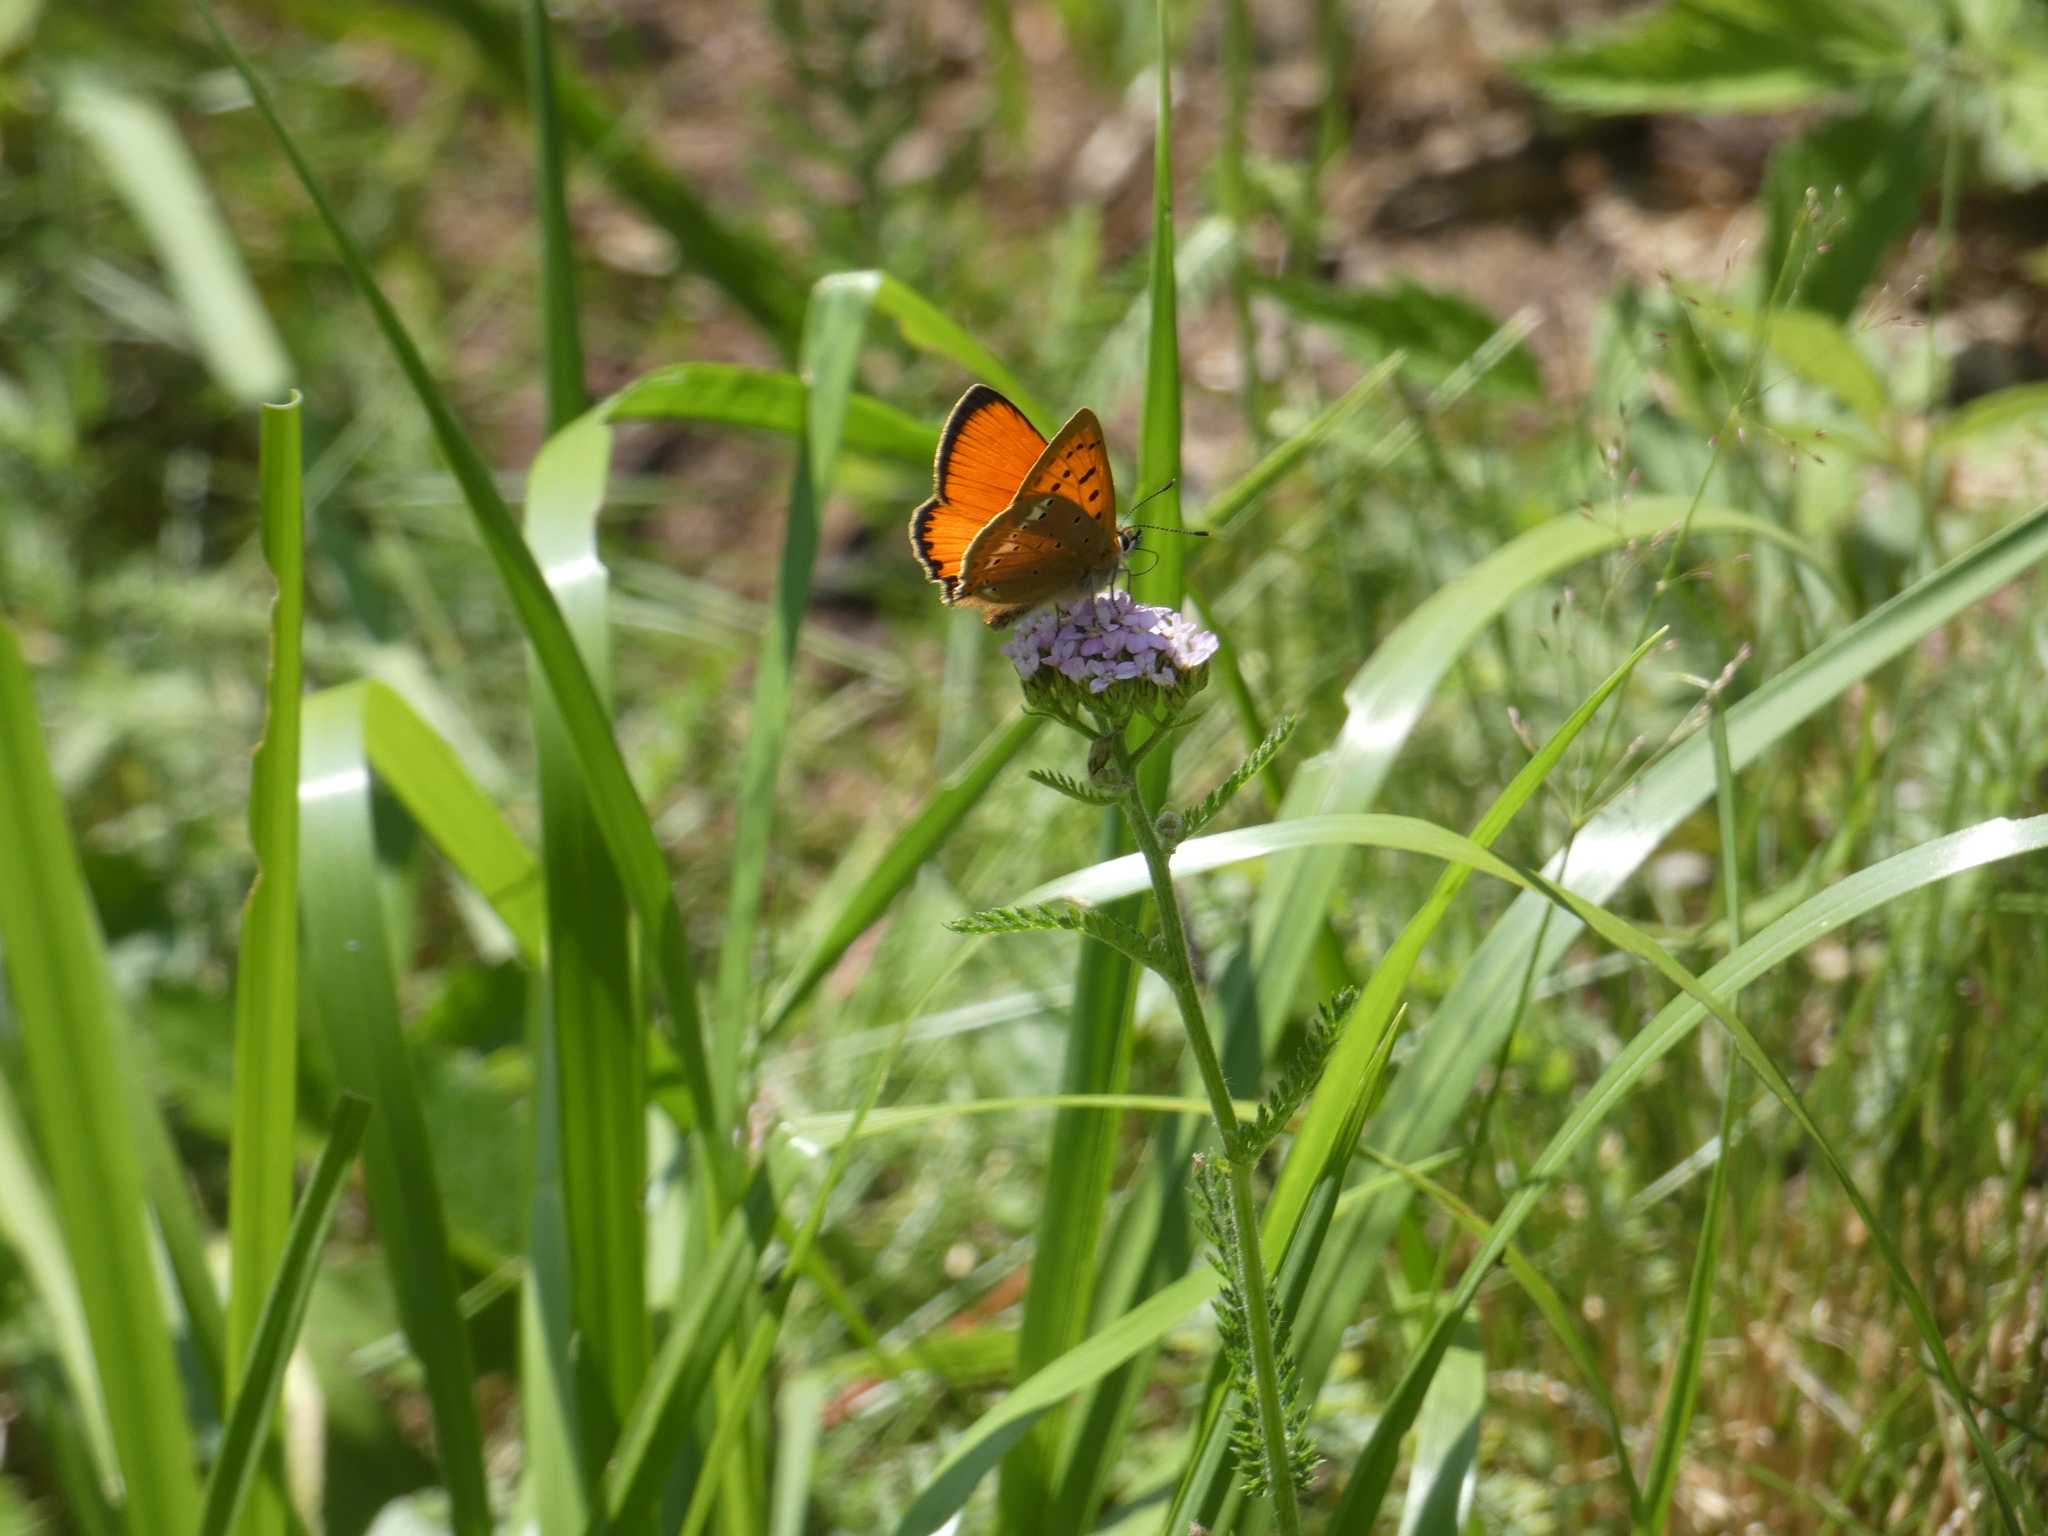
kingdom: Animalia
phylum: Arthropoda
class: Insecta
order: Lepidoptera
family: Lycaenidae
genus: Lycaena
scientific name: Lycaena virgaureae
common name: Scarce copper
